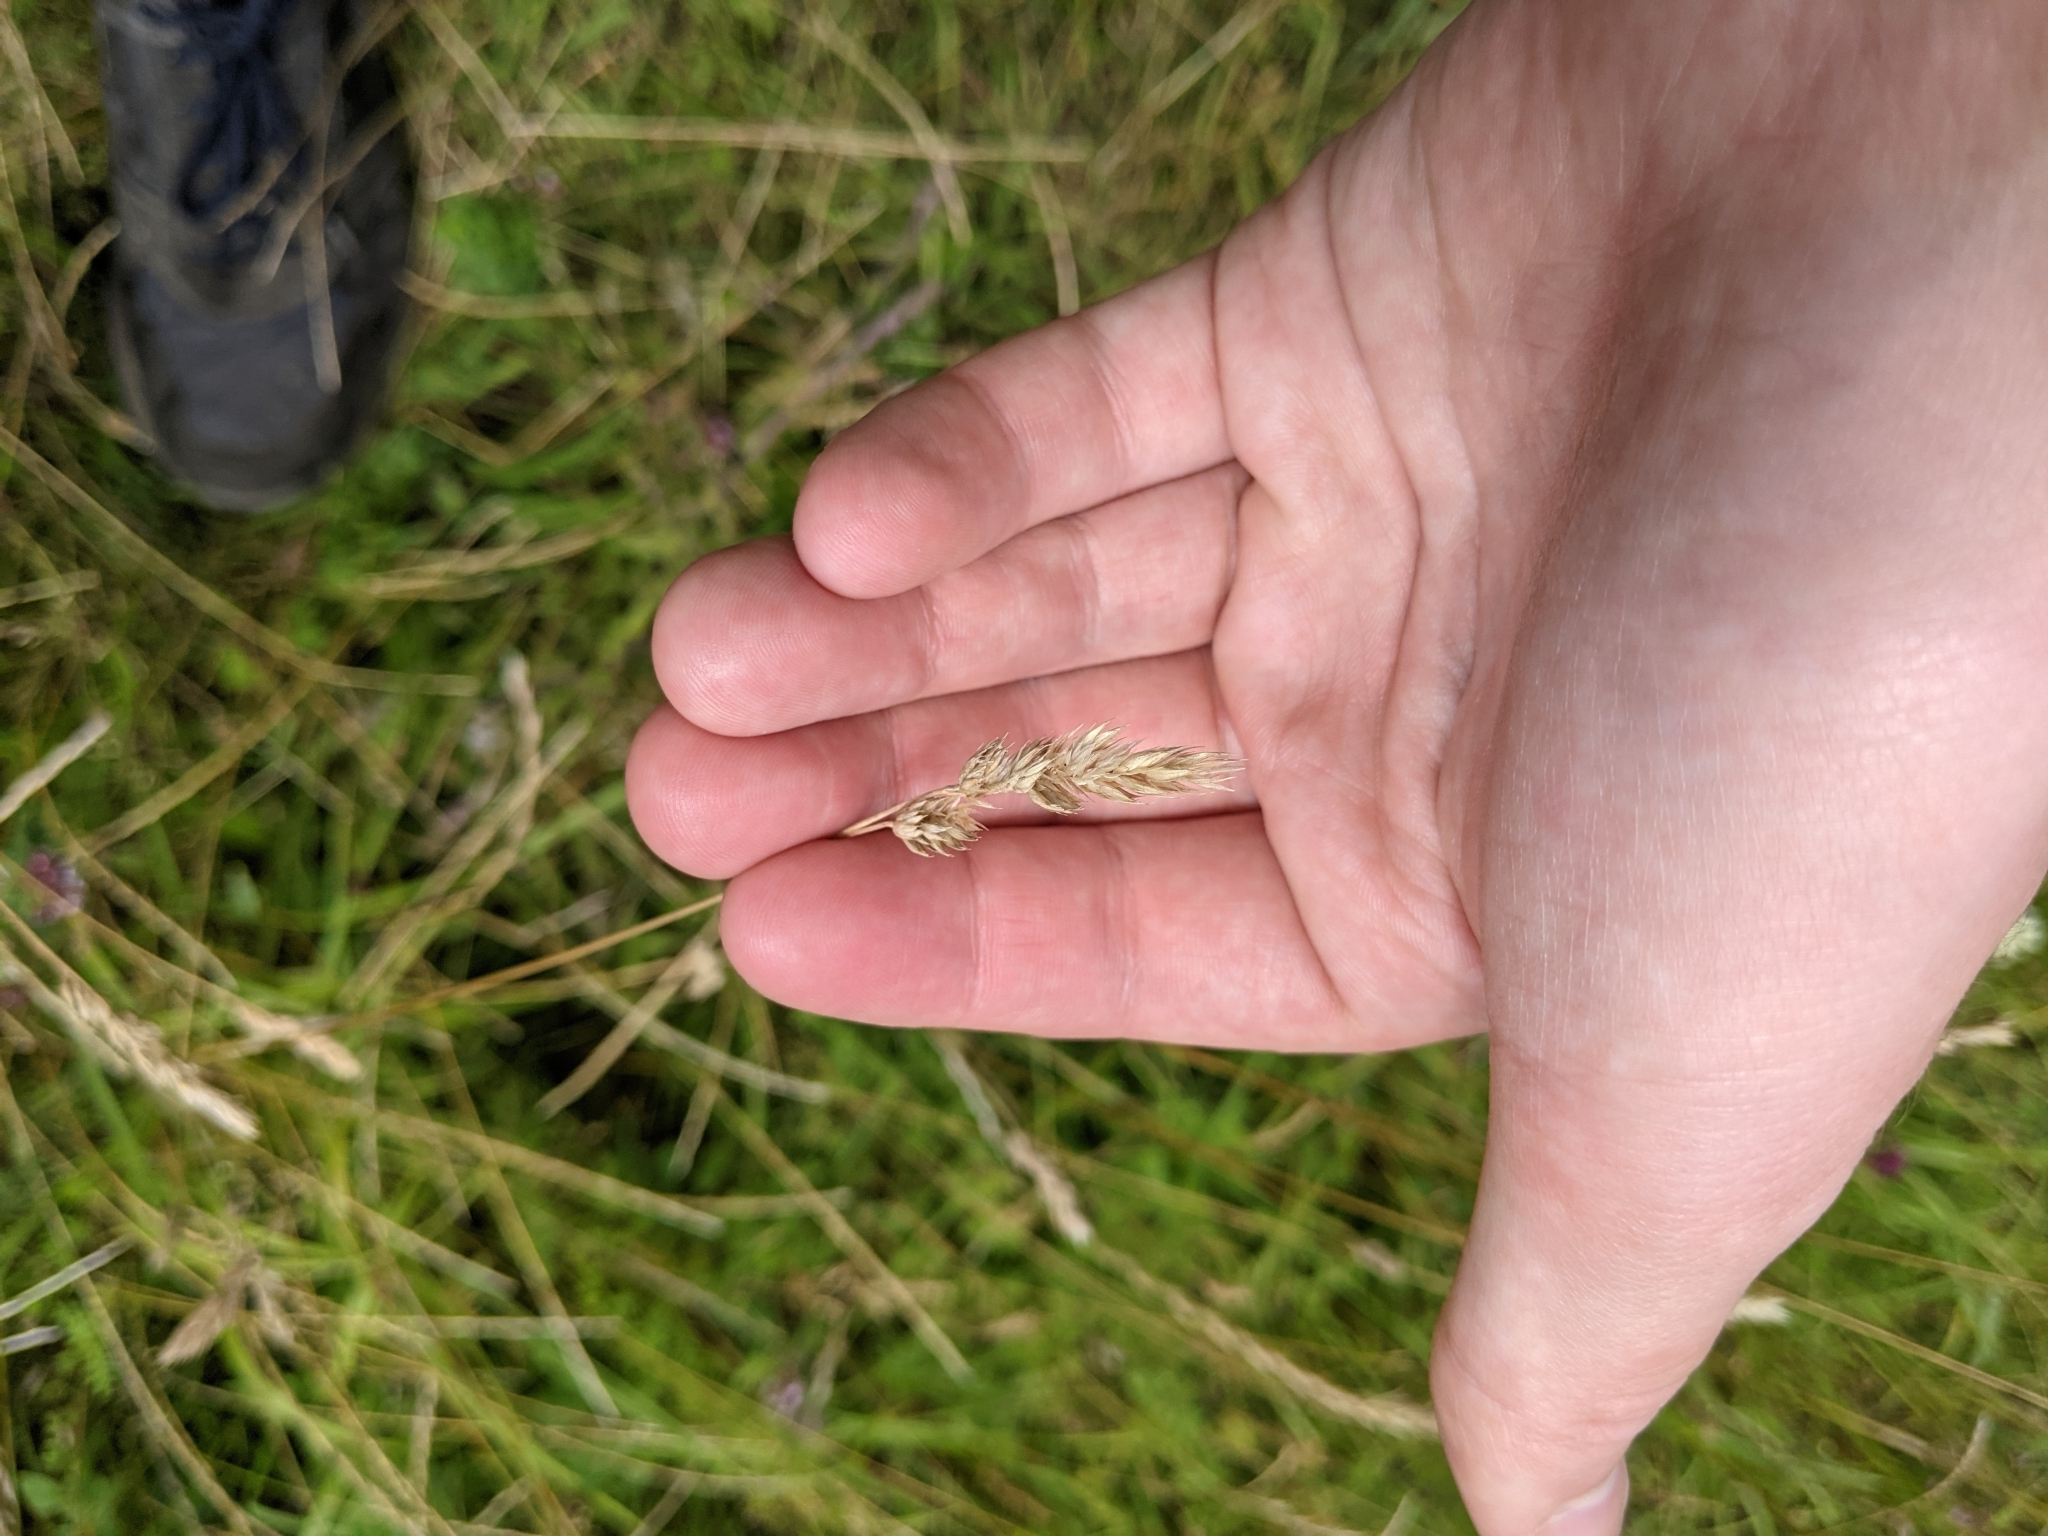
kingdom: Plantae
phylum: Tracheophyta
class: Liliopsida
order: Poales
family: Poaceae
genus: Dactylis
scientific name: Dactylis glomerata
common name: Orchardgrass
